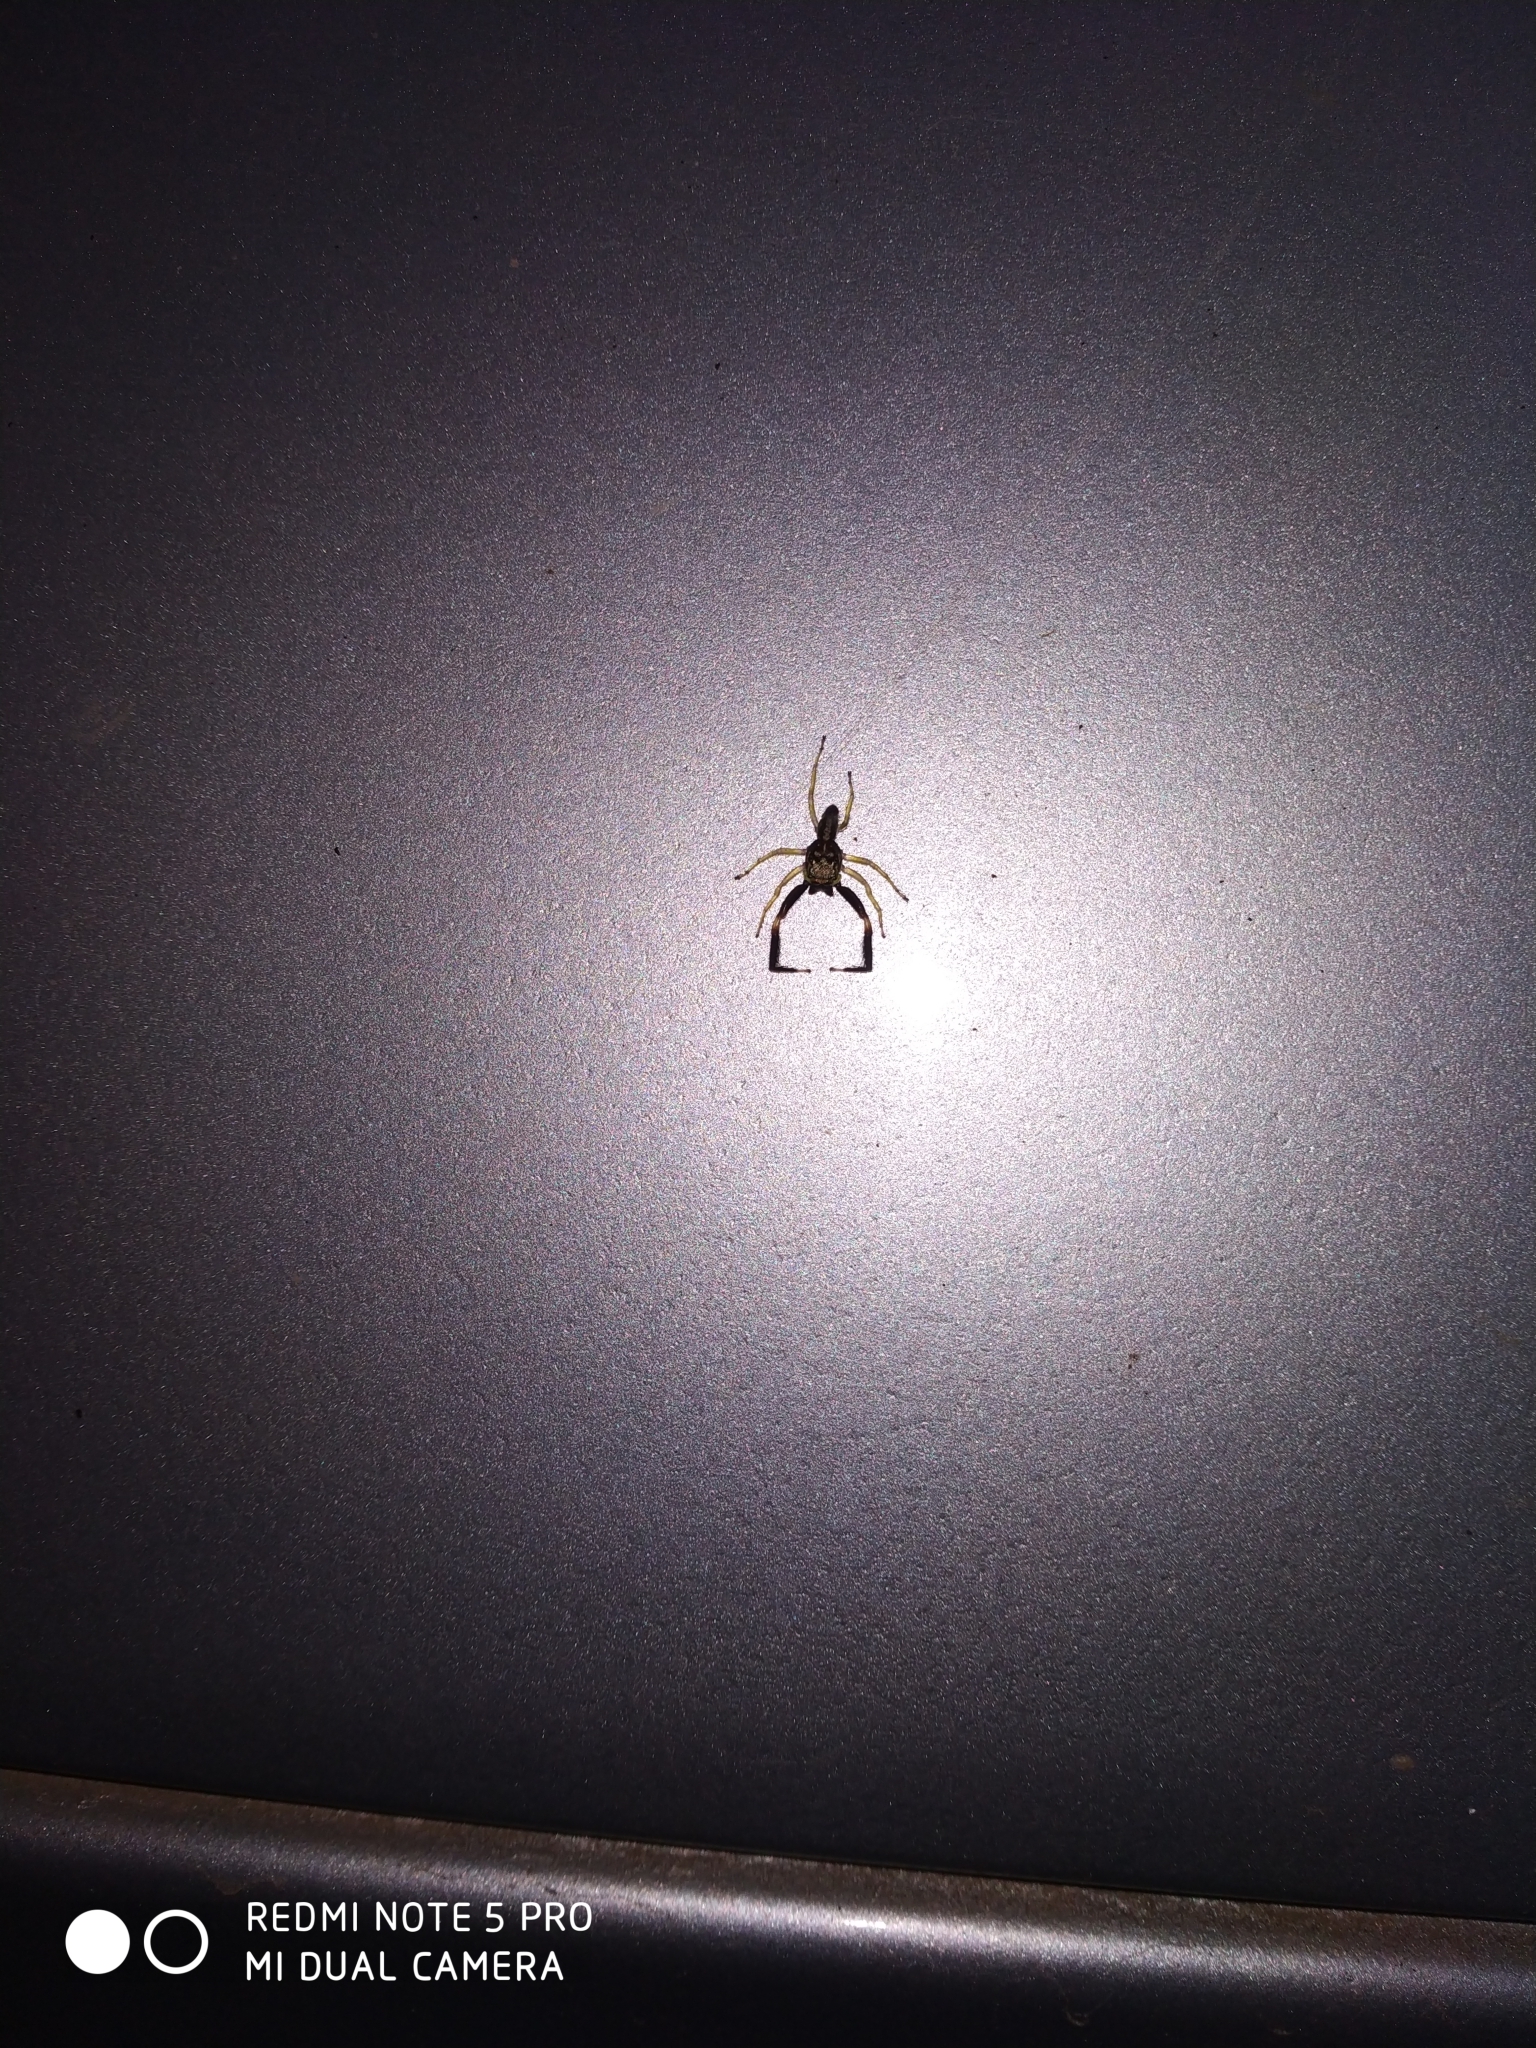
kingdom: Animalia
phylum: Arthropoda
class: Arachnida
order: Araneae
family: Salticidae
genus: Indopadilla
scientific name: Indopadilla insularis
